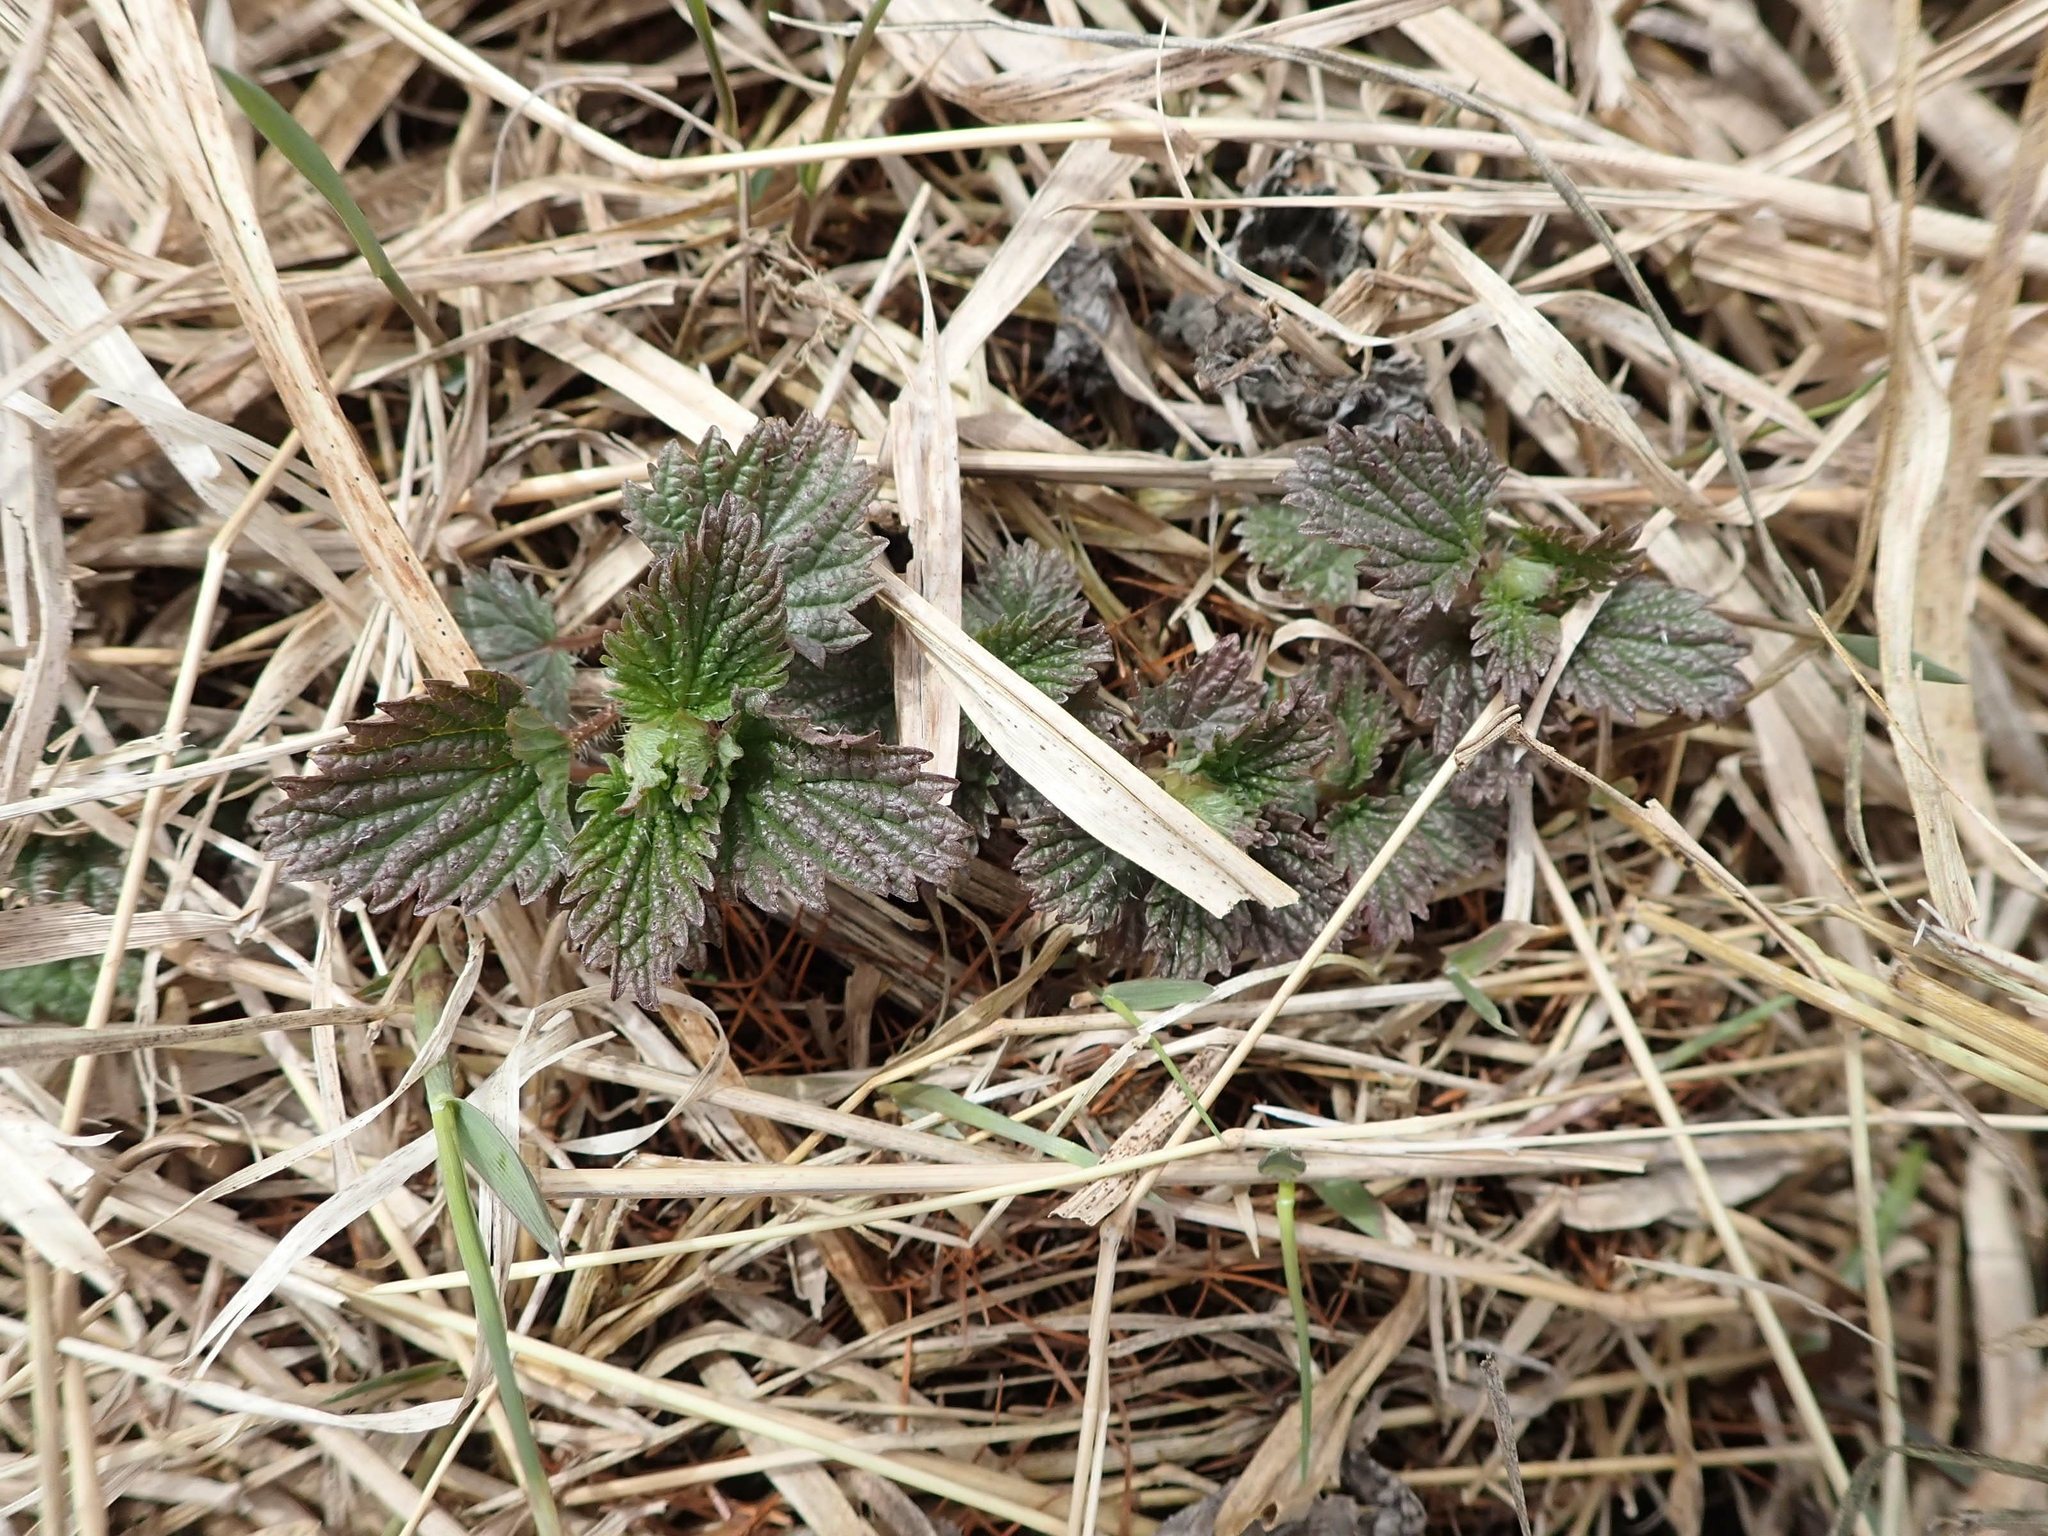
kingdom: Plantae
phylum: Tracheophyta
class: Magnoliopsida
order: Rosales
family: Urticaceae
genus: Urtica
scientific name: Urtica gracilis
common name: Slender stinging nettle
